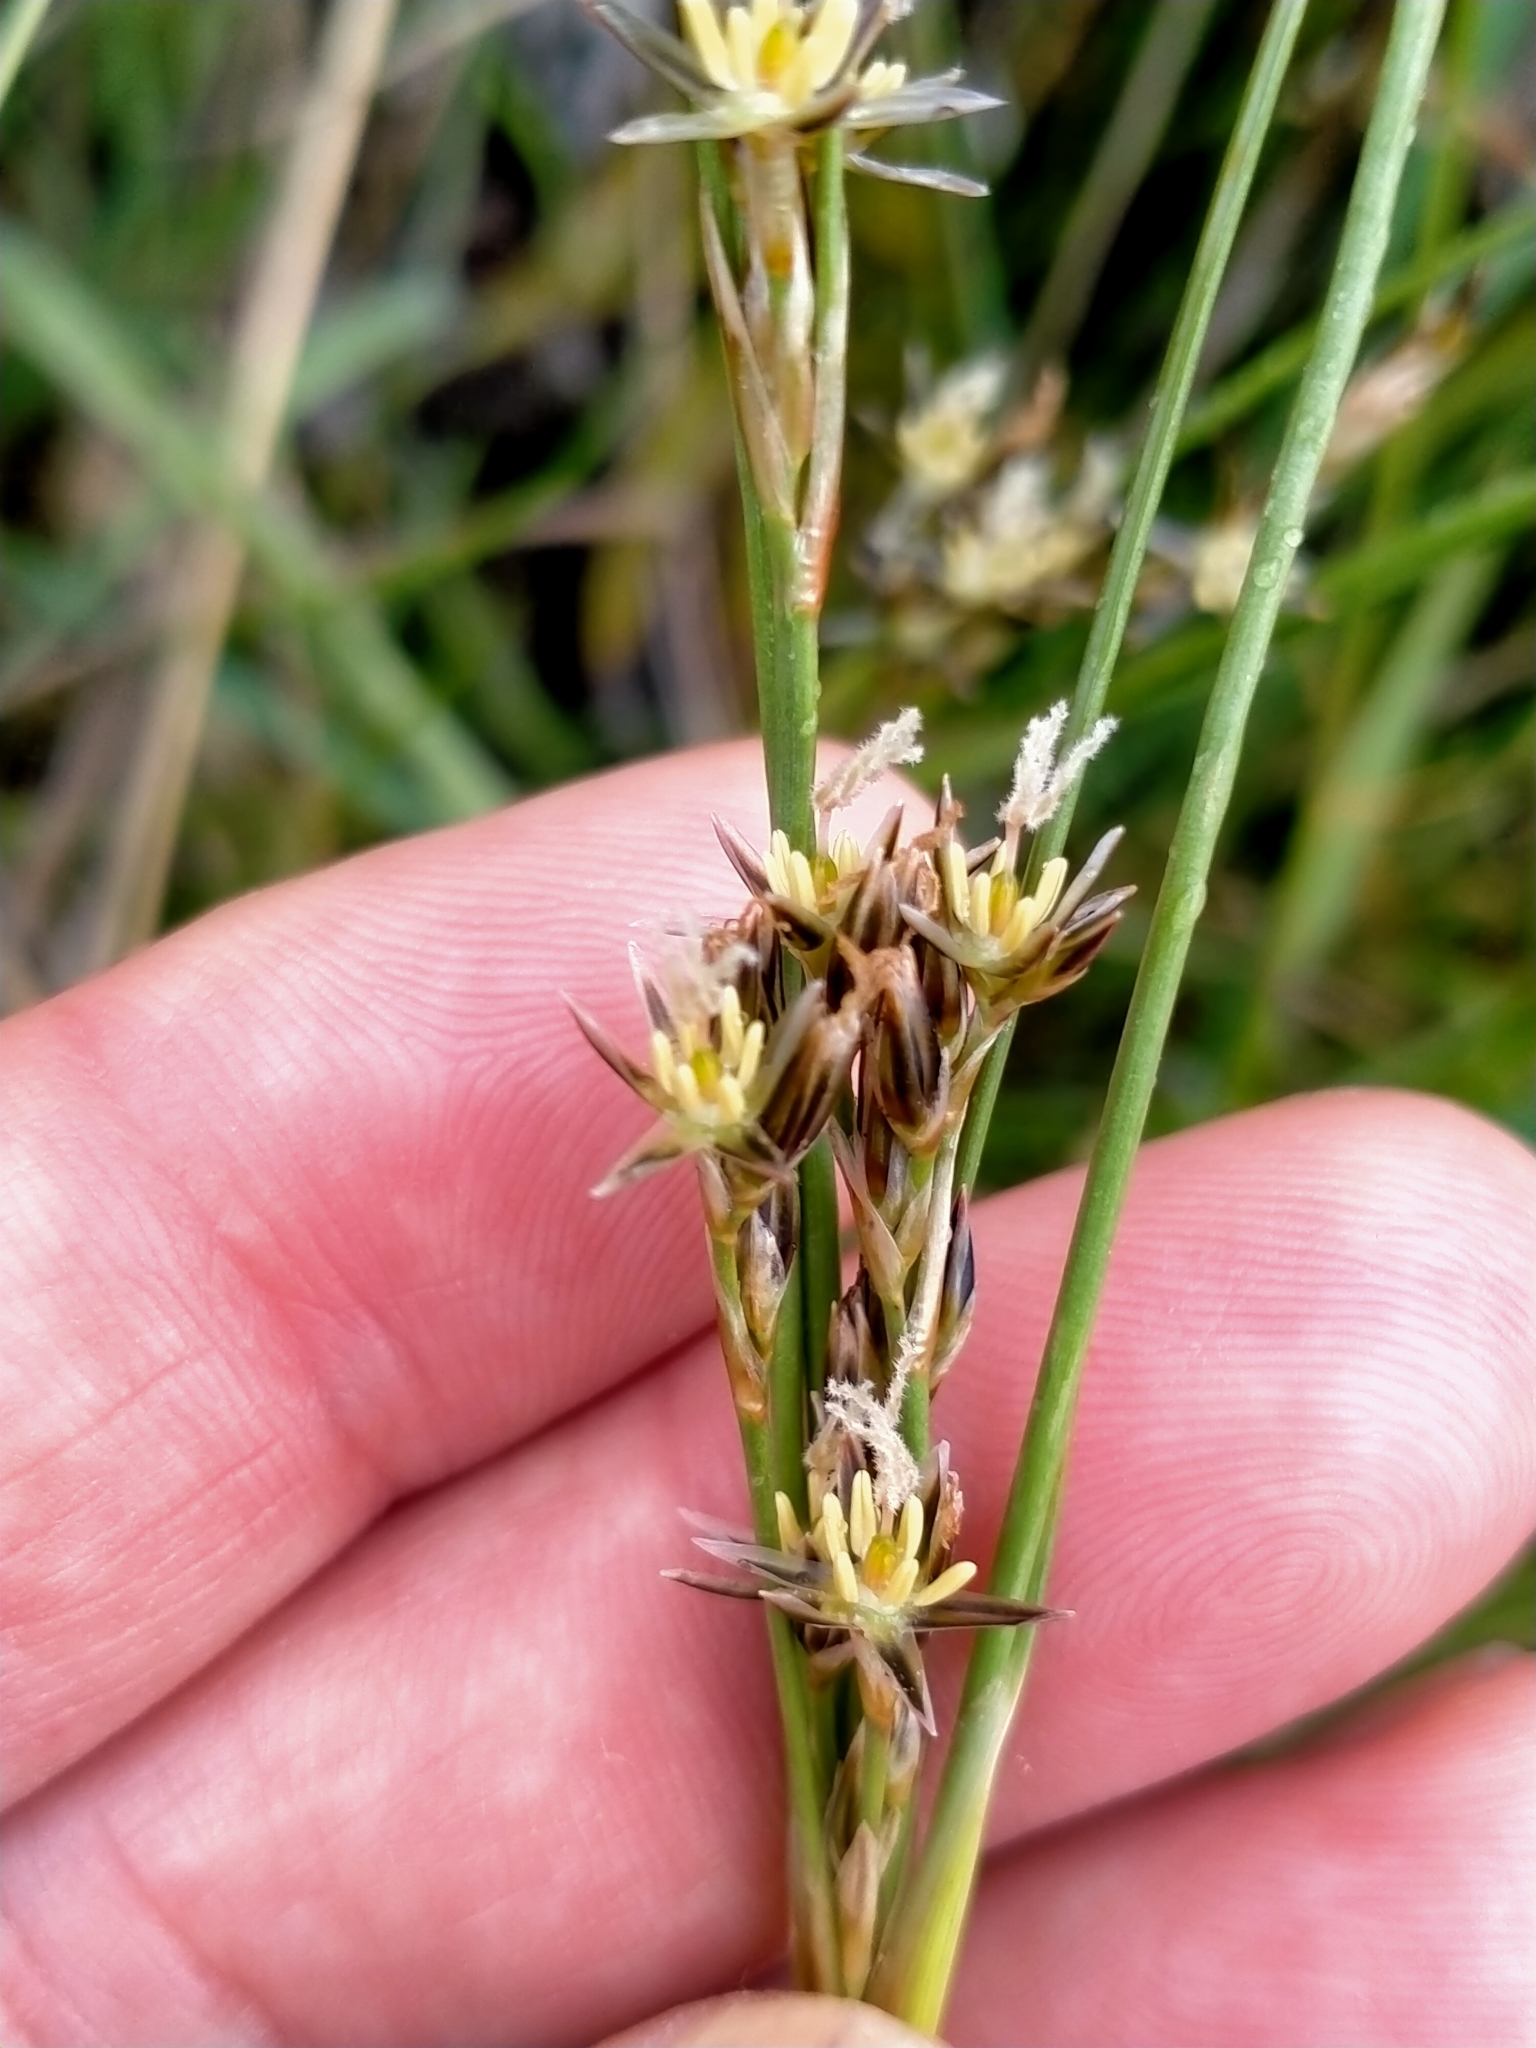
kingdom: Plantae
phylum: Tracheophyta
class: Liliopsida
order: Poales
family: Juncaceae
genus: Juncus
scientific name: Juncus squarrosus
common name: Heath rush
